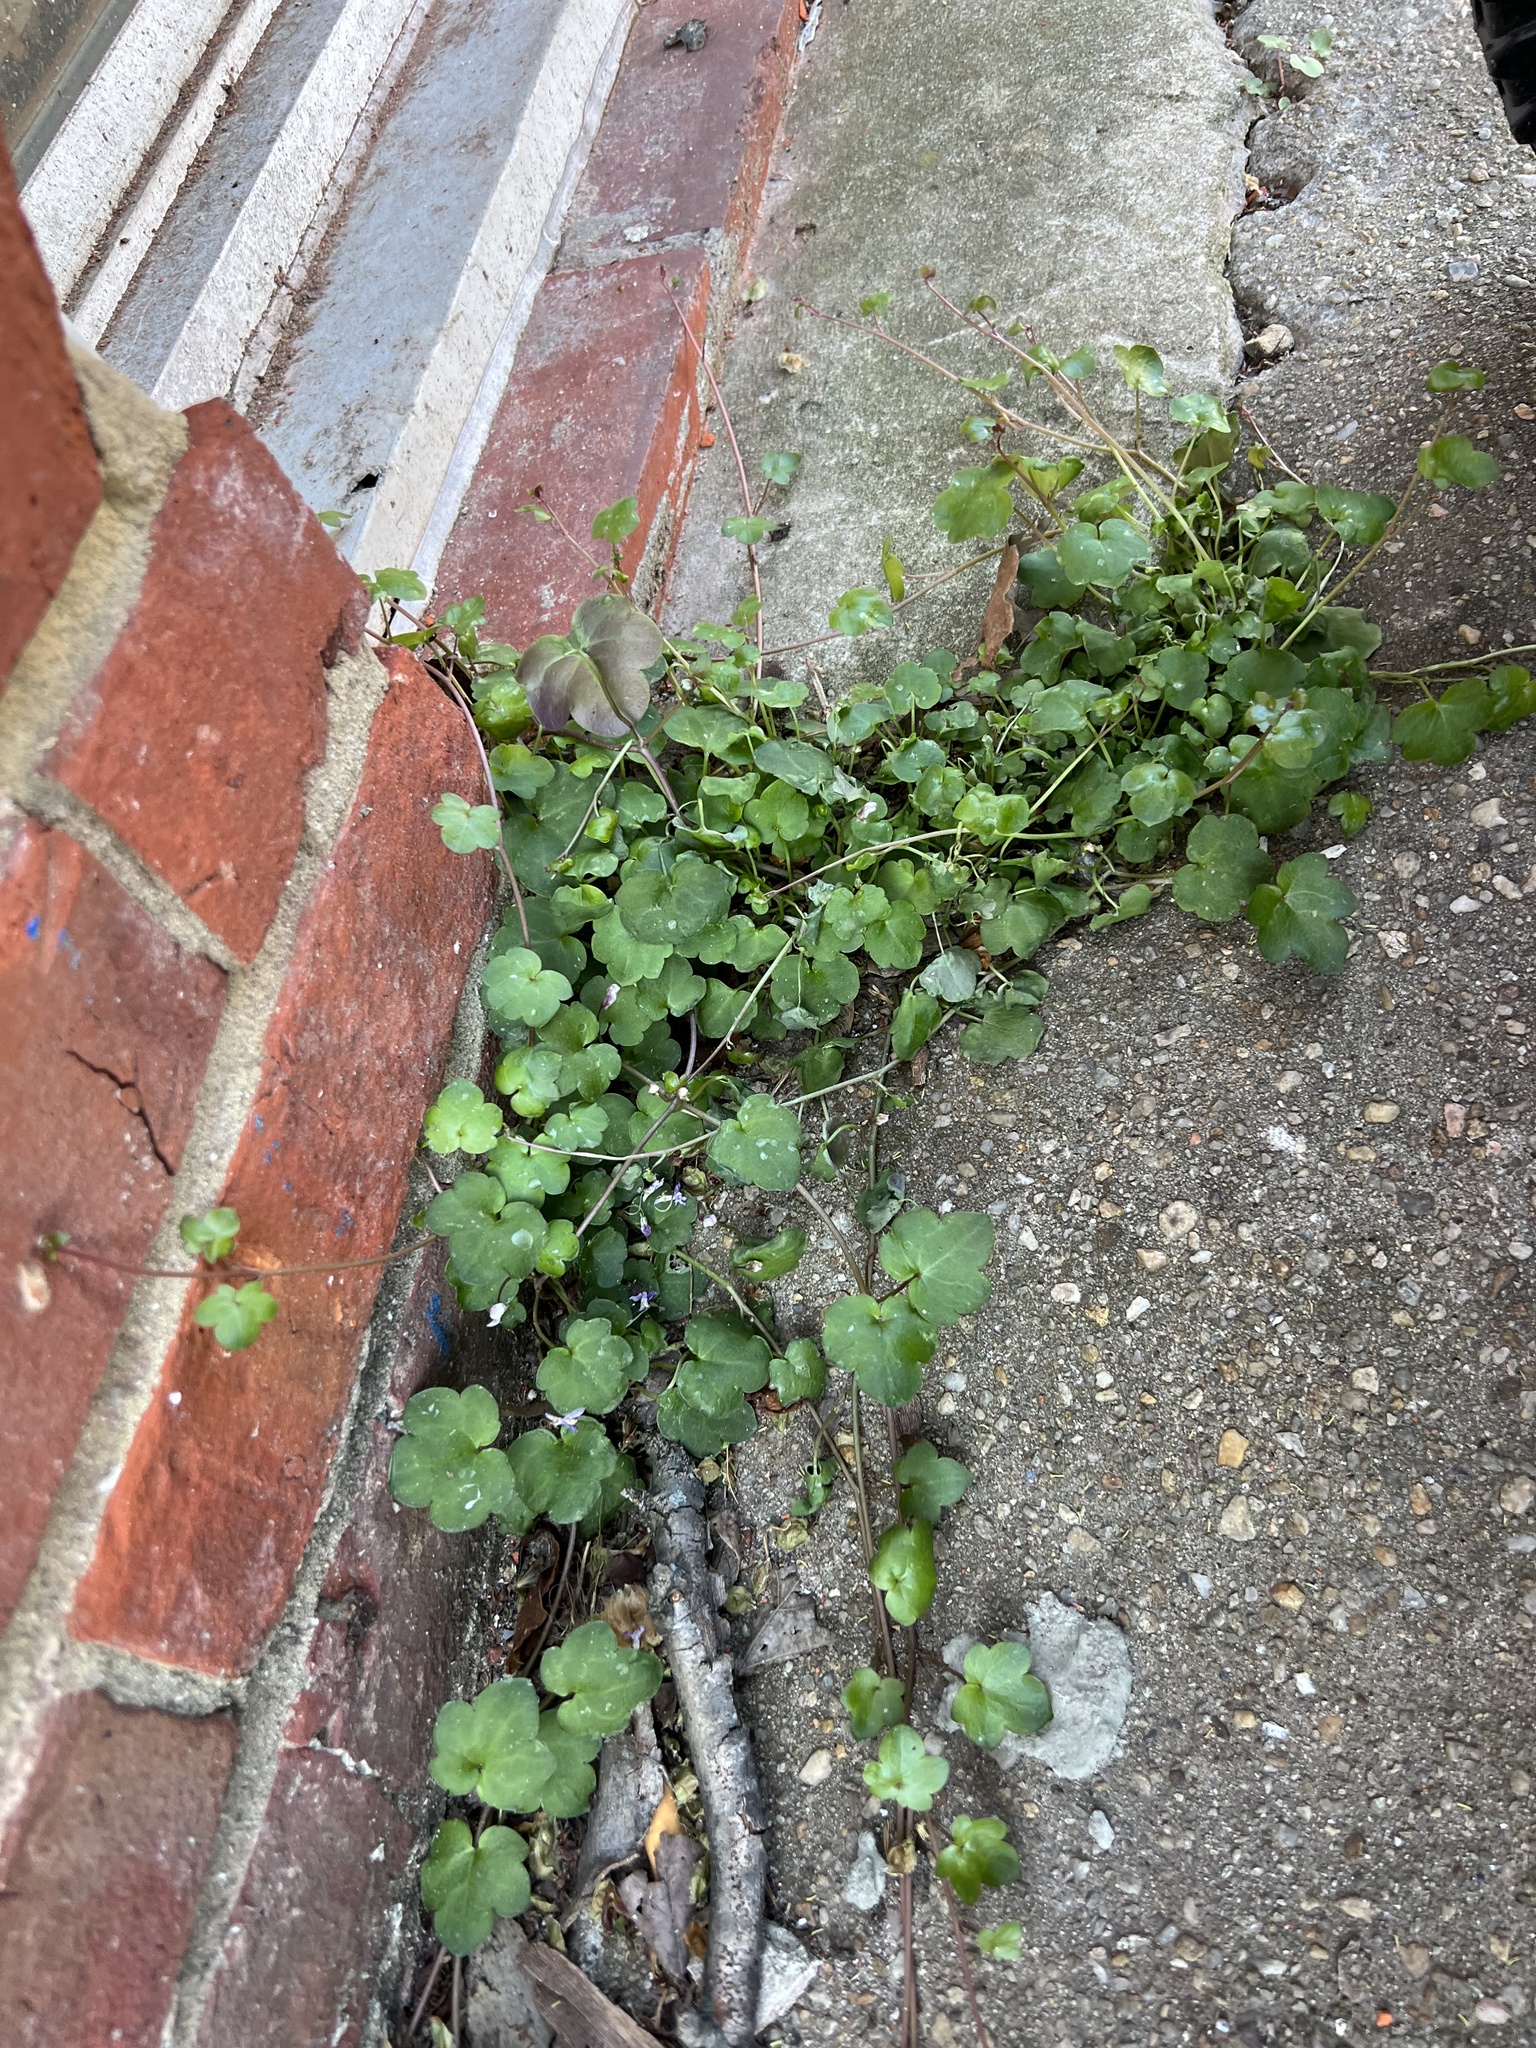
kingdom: Plantae
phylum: Tracheophyta
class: Magnoliopsida
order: Lamiales
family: Plantaginaceae
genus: Cymbalaria
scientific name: Cymbalaria muralis
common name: Ivy-leaved toadflax
